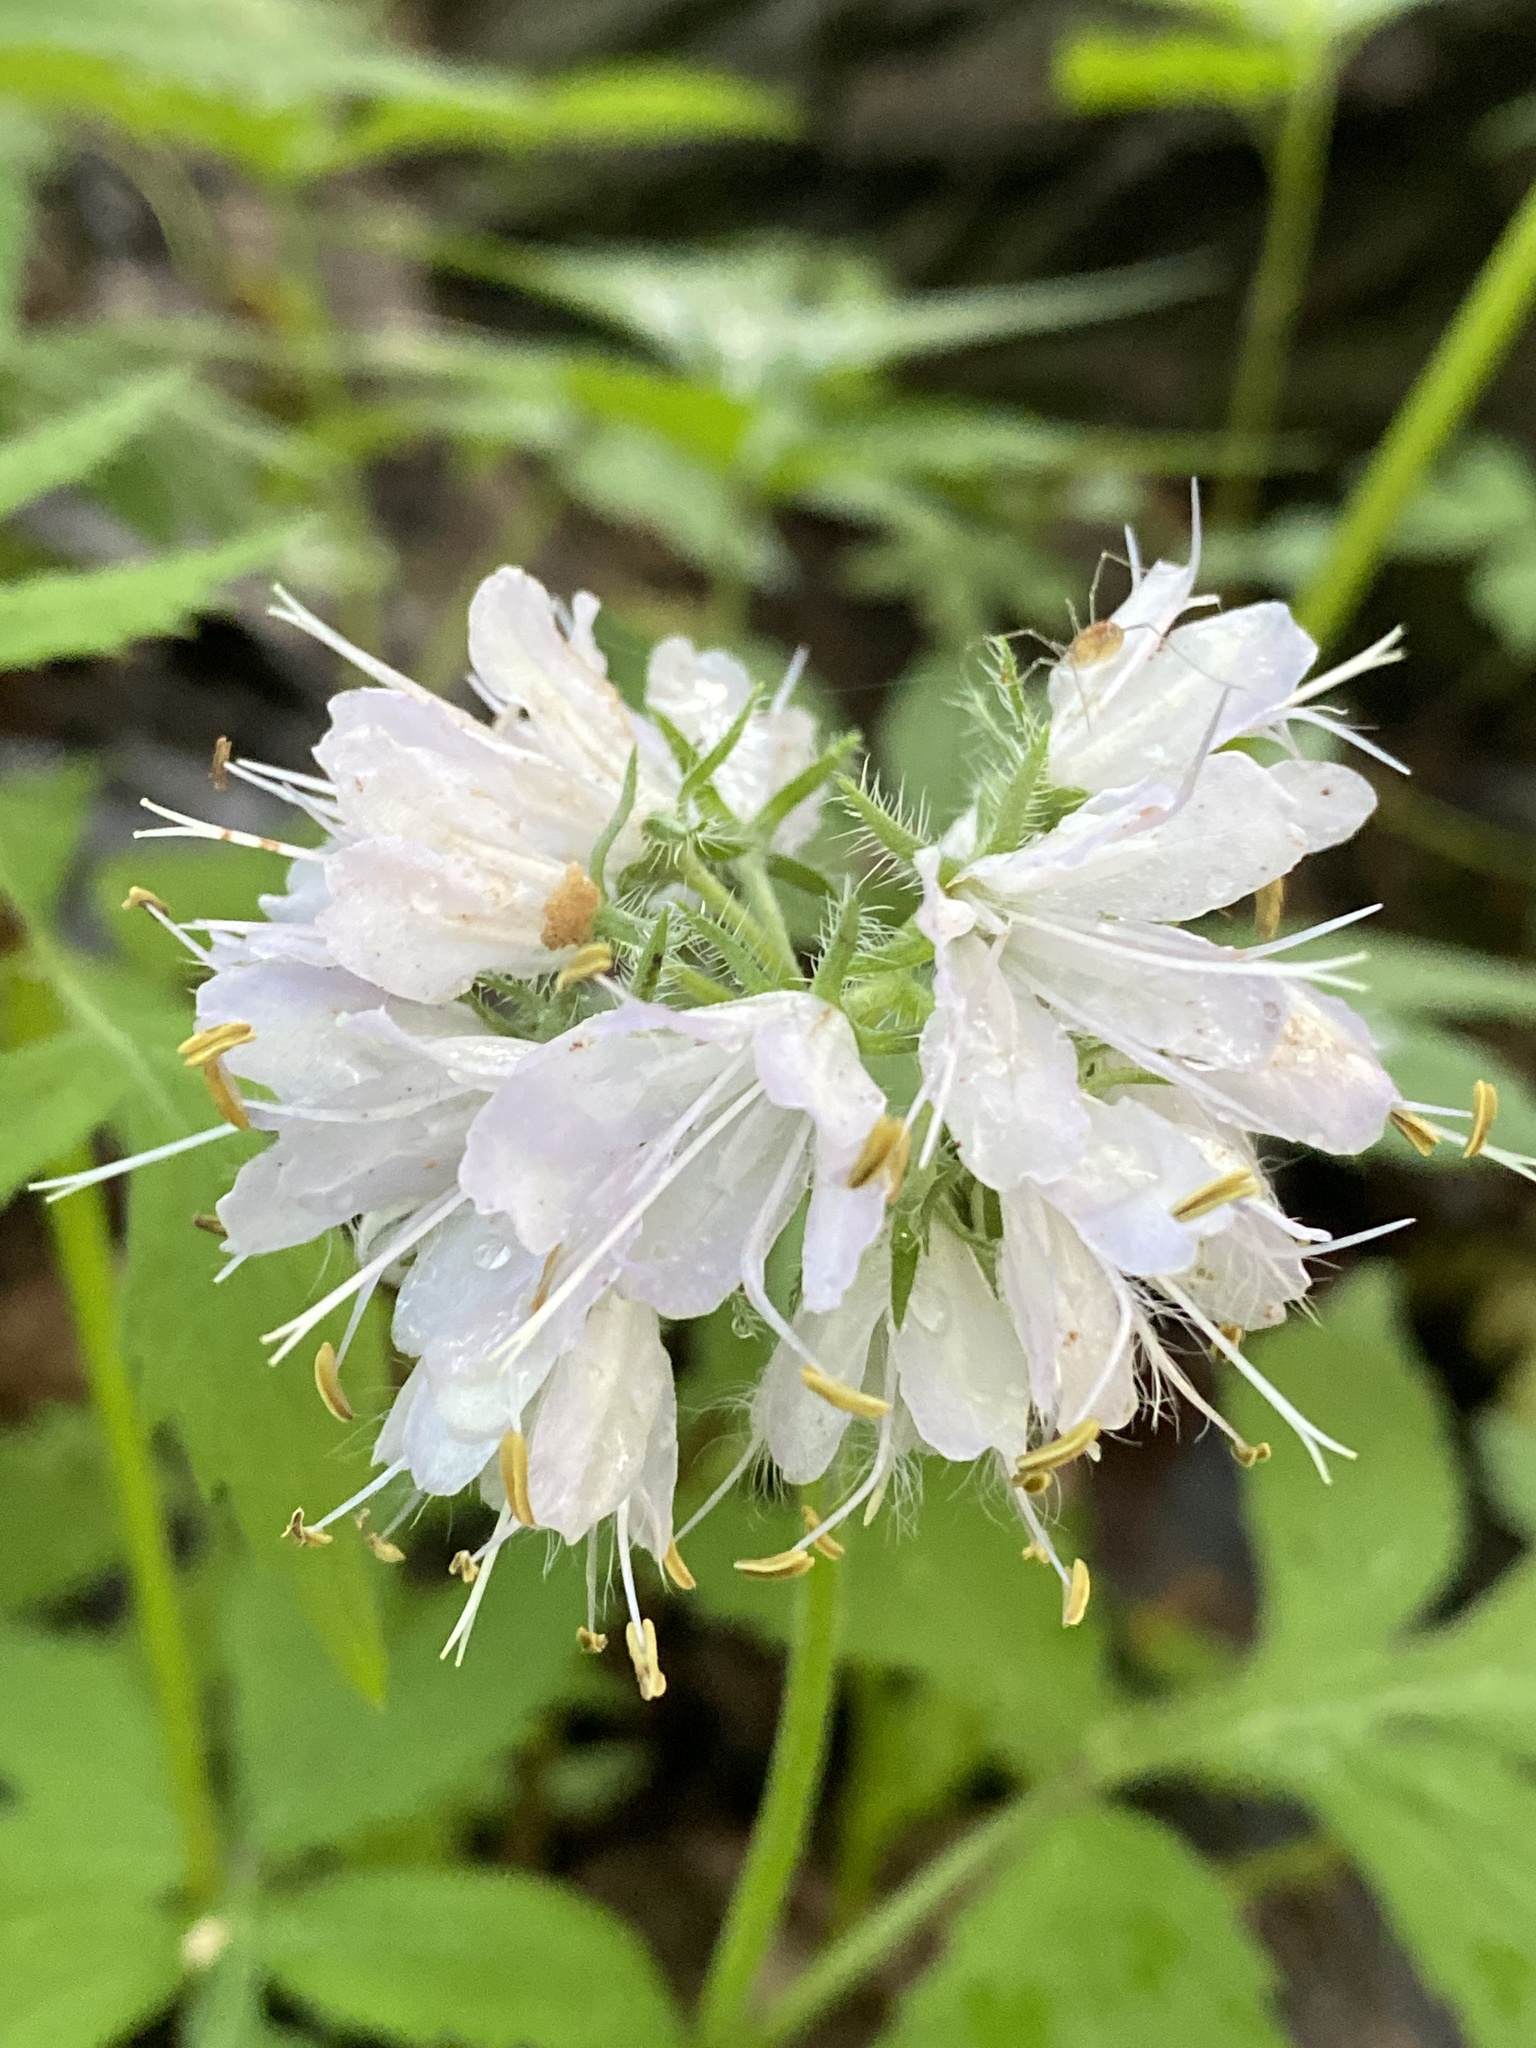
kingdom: Plantae
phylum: Tracheophyta
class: Magnoliopsida
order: Boraginales
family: Hydrophyllaceae
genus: Hydrophyllum
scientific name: Hydrophyllum virginianum
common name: Virginia waterleaf
